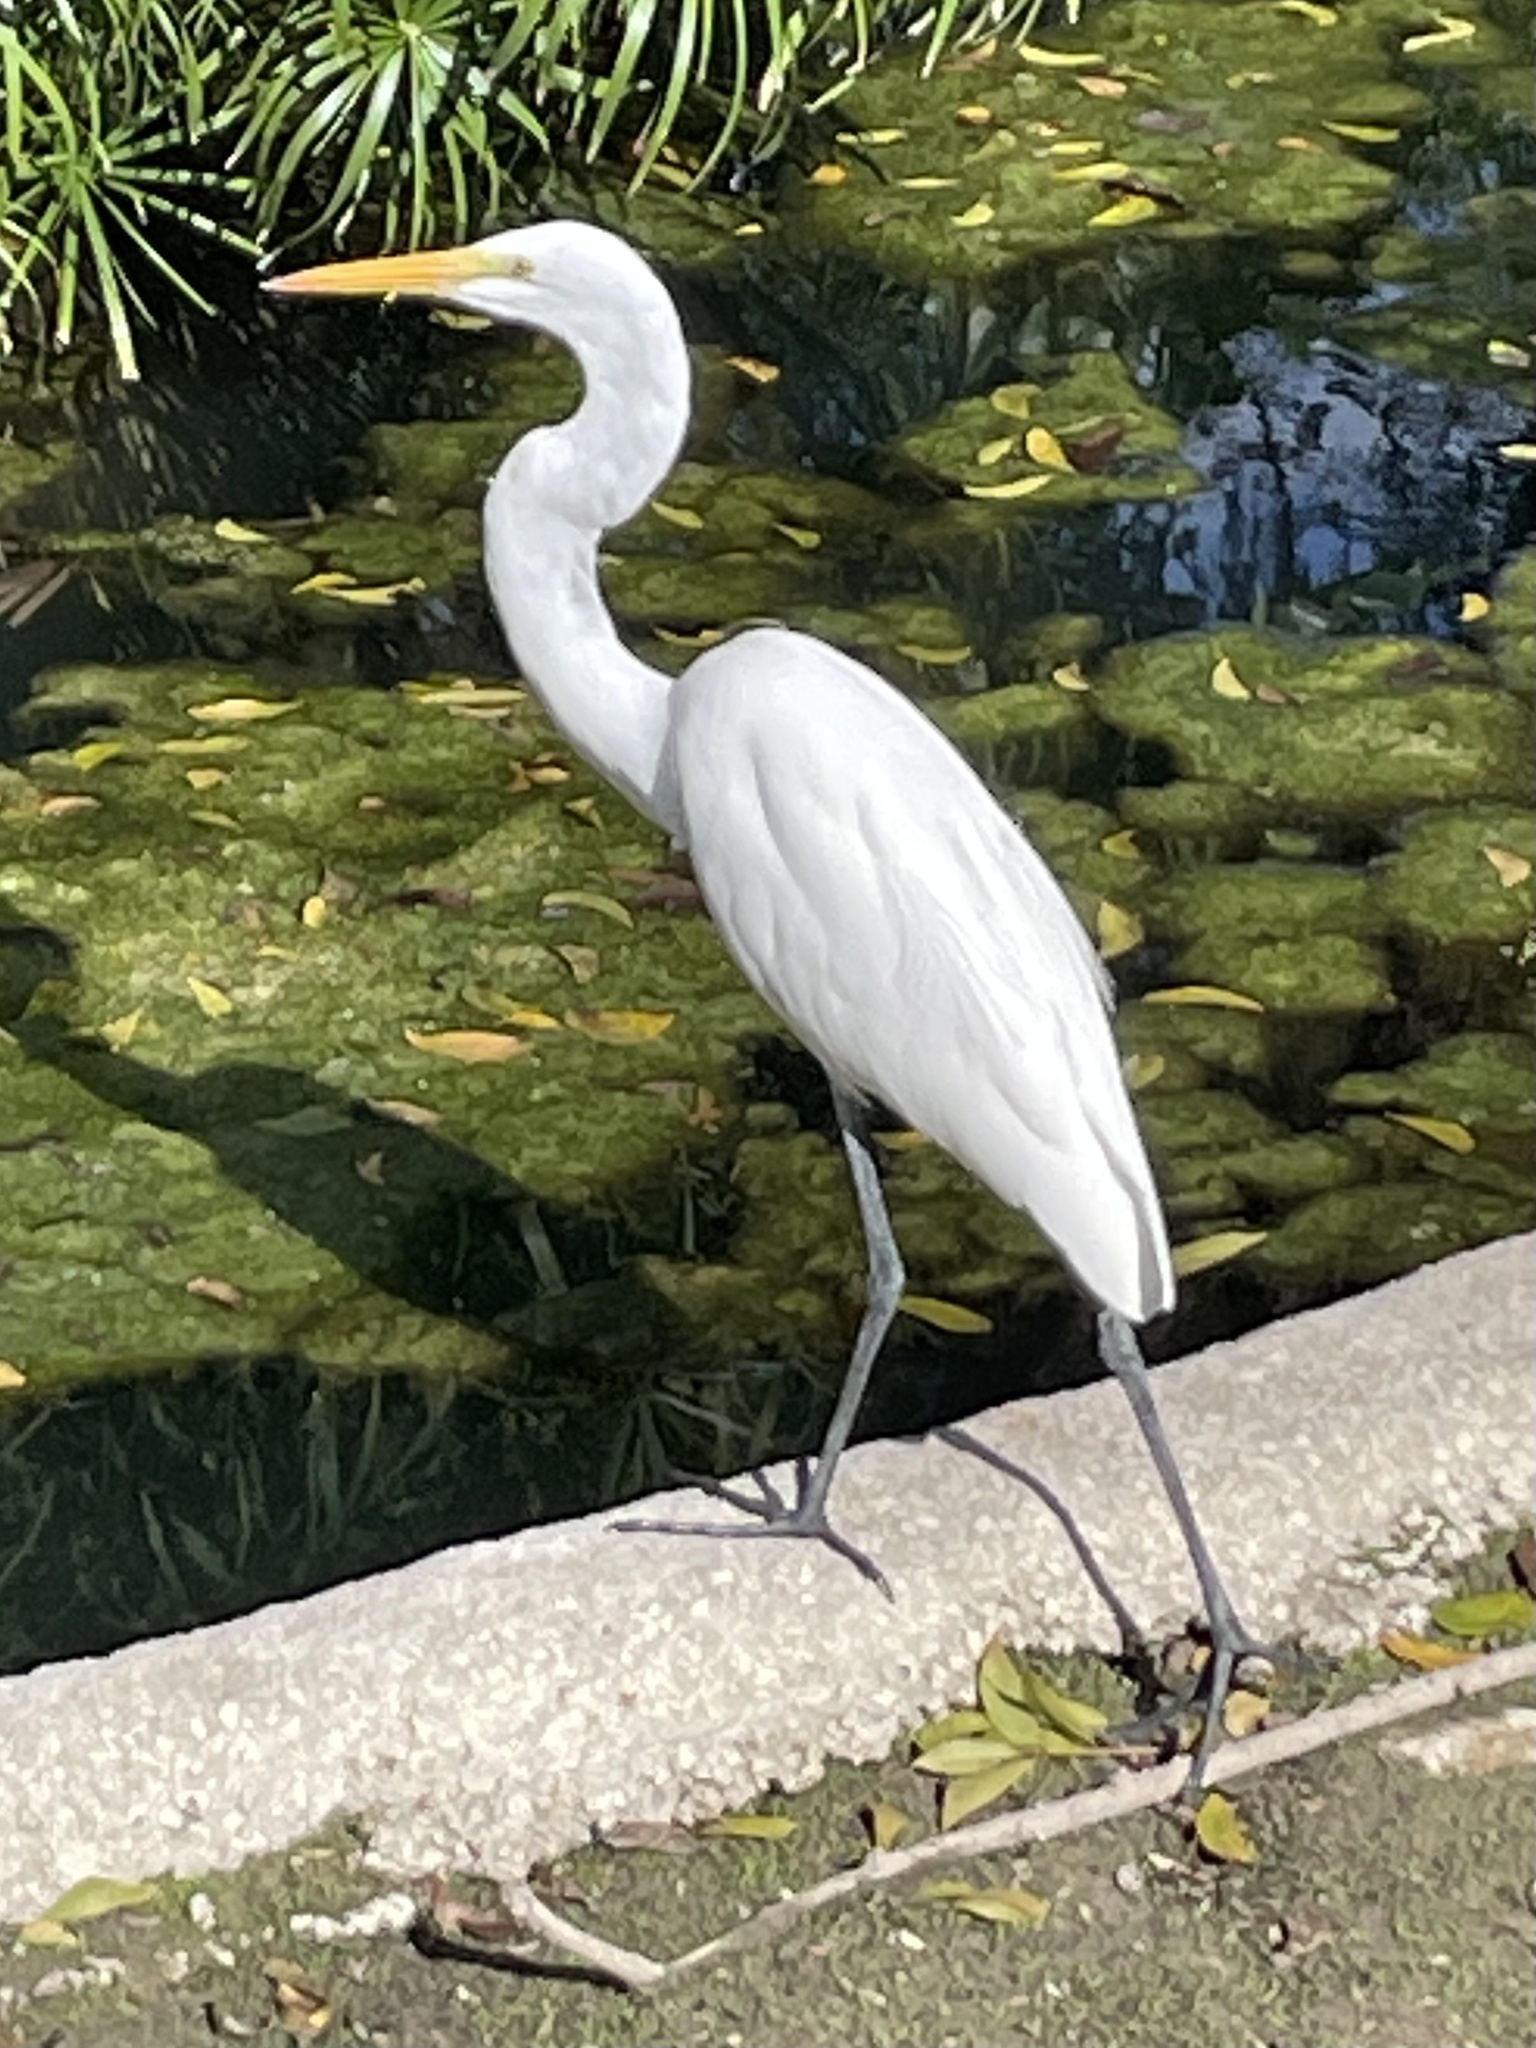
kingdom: Animalia
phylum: Chordata
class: Aves
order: Pelecaniformes
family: Ardeidae
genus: Ardea
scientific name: Ardea alba
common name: Great egret
